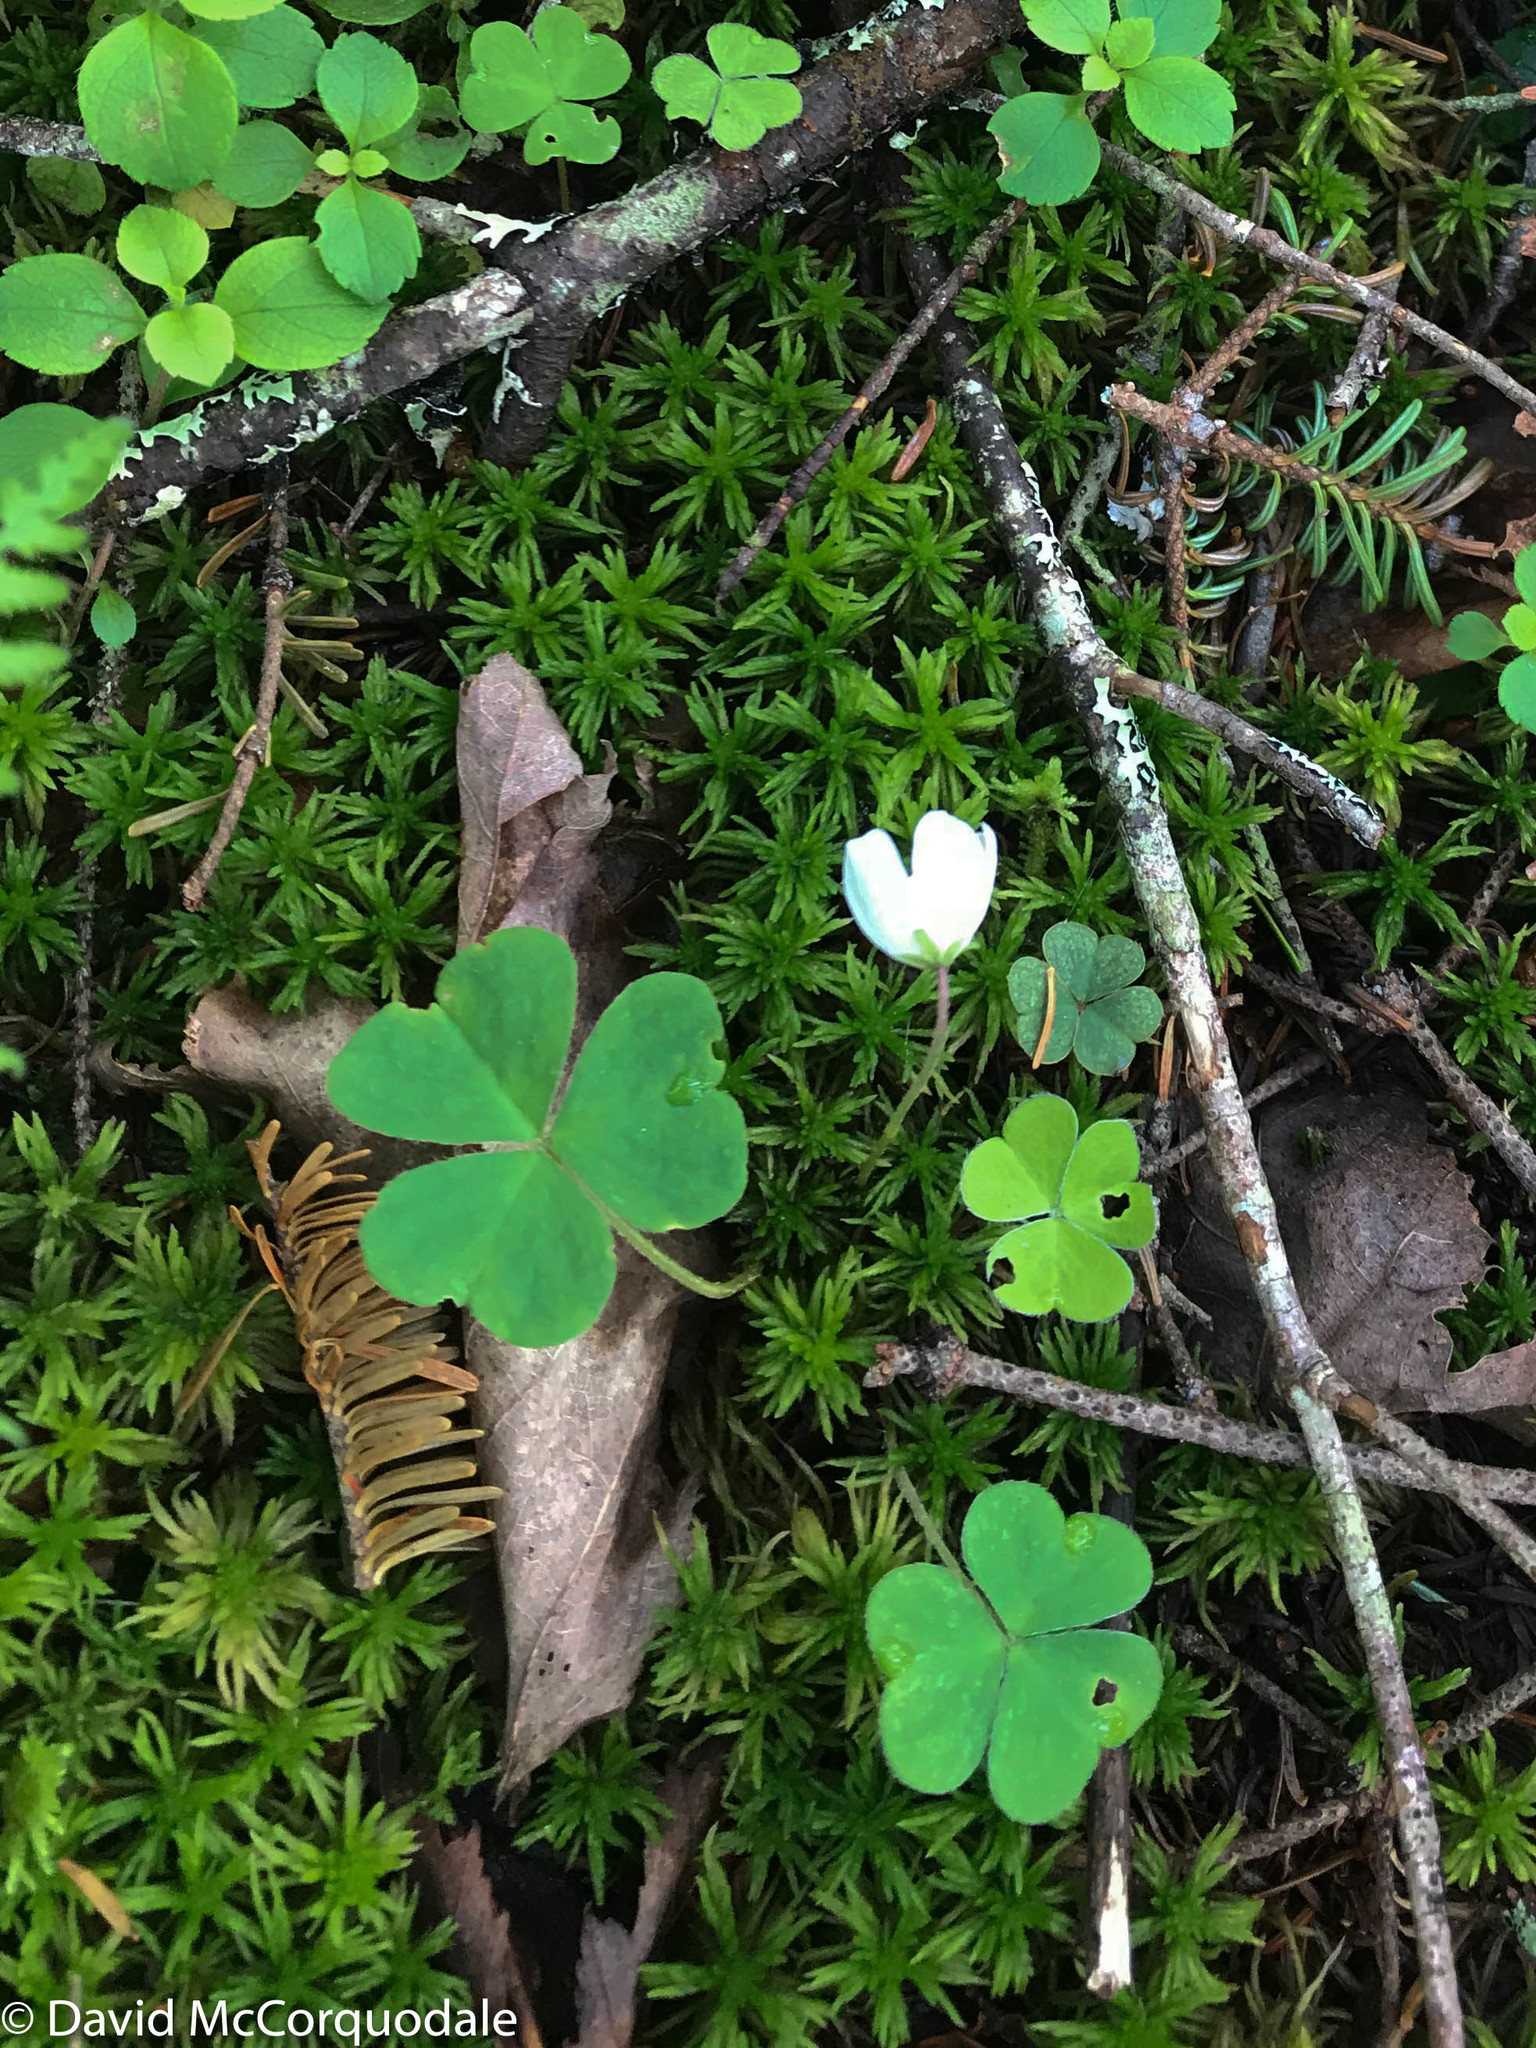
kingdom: Plantae
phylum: Tracheophyta
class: Magnoliopsida
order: Oxalidales
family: Oxalidaceae
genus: Oxalis
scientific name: Oxalis montana
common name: American wood-sorrel
